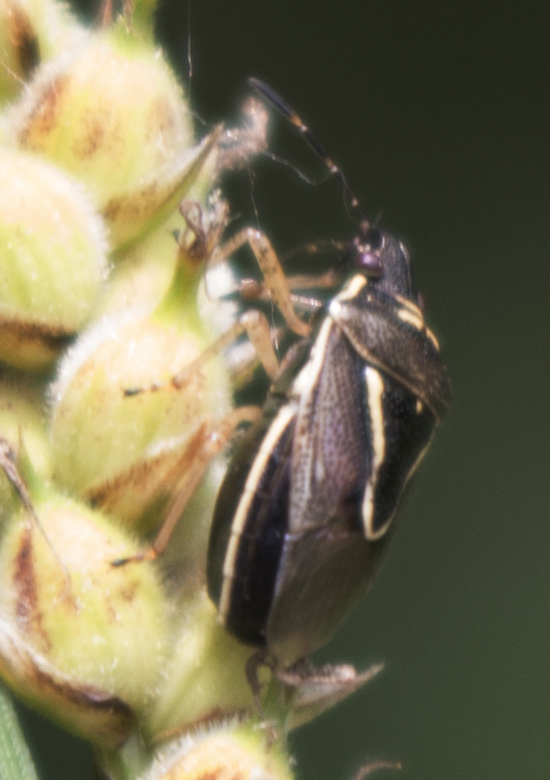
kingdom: Animalia
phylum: Arthropoda
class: Insecta
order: Hemiptera
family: Pentatomidae
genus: Mormidea
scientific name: Mormidea lugens
